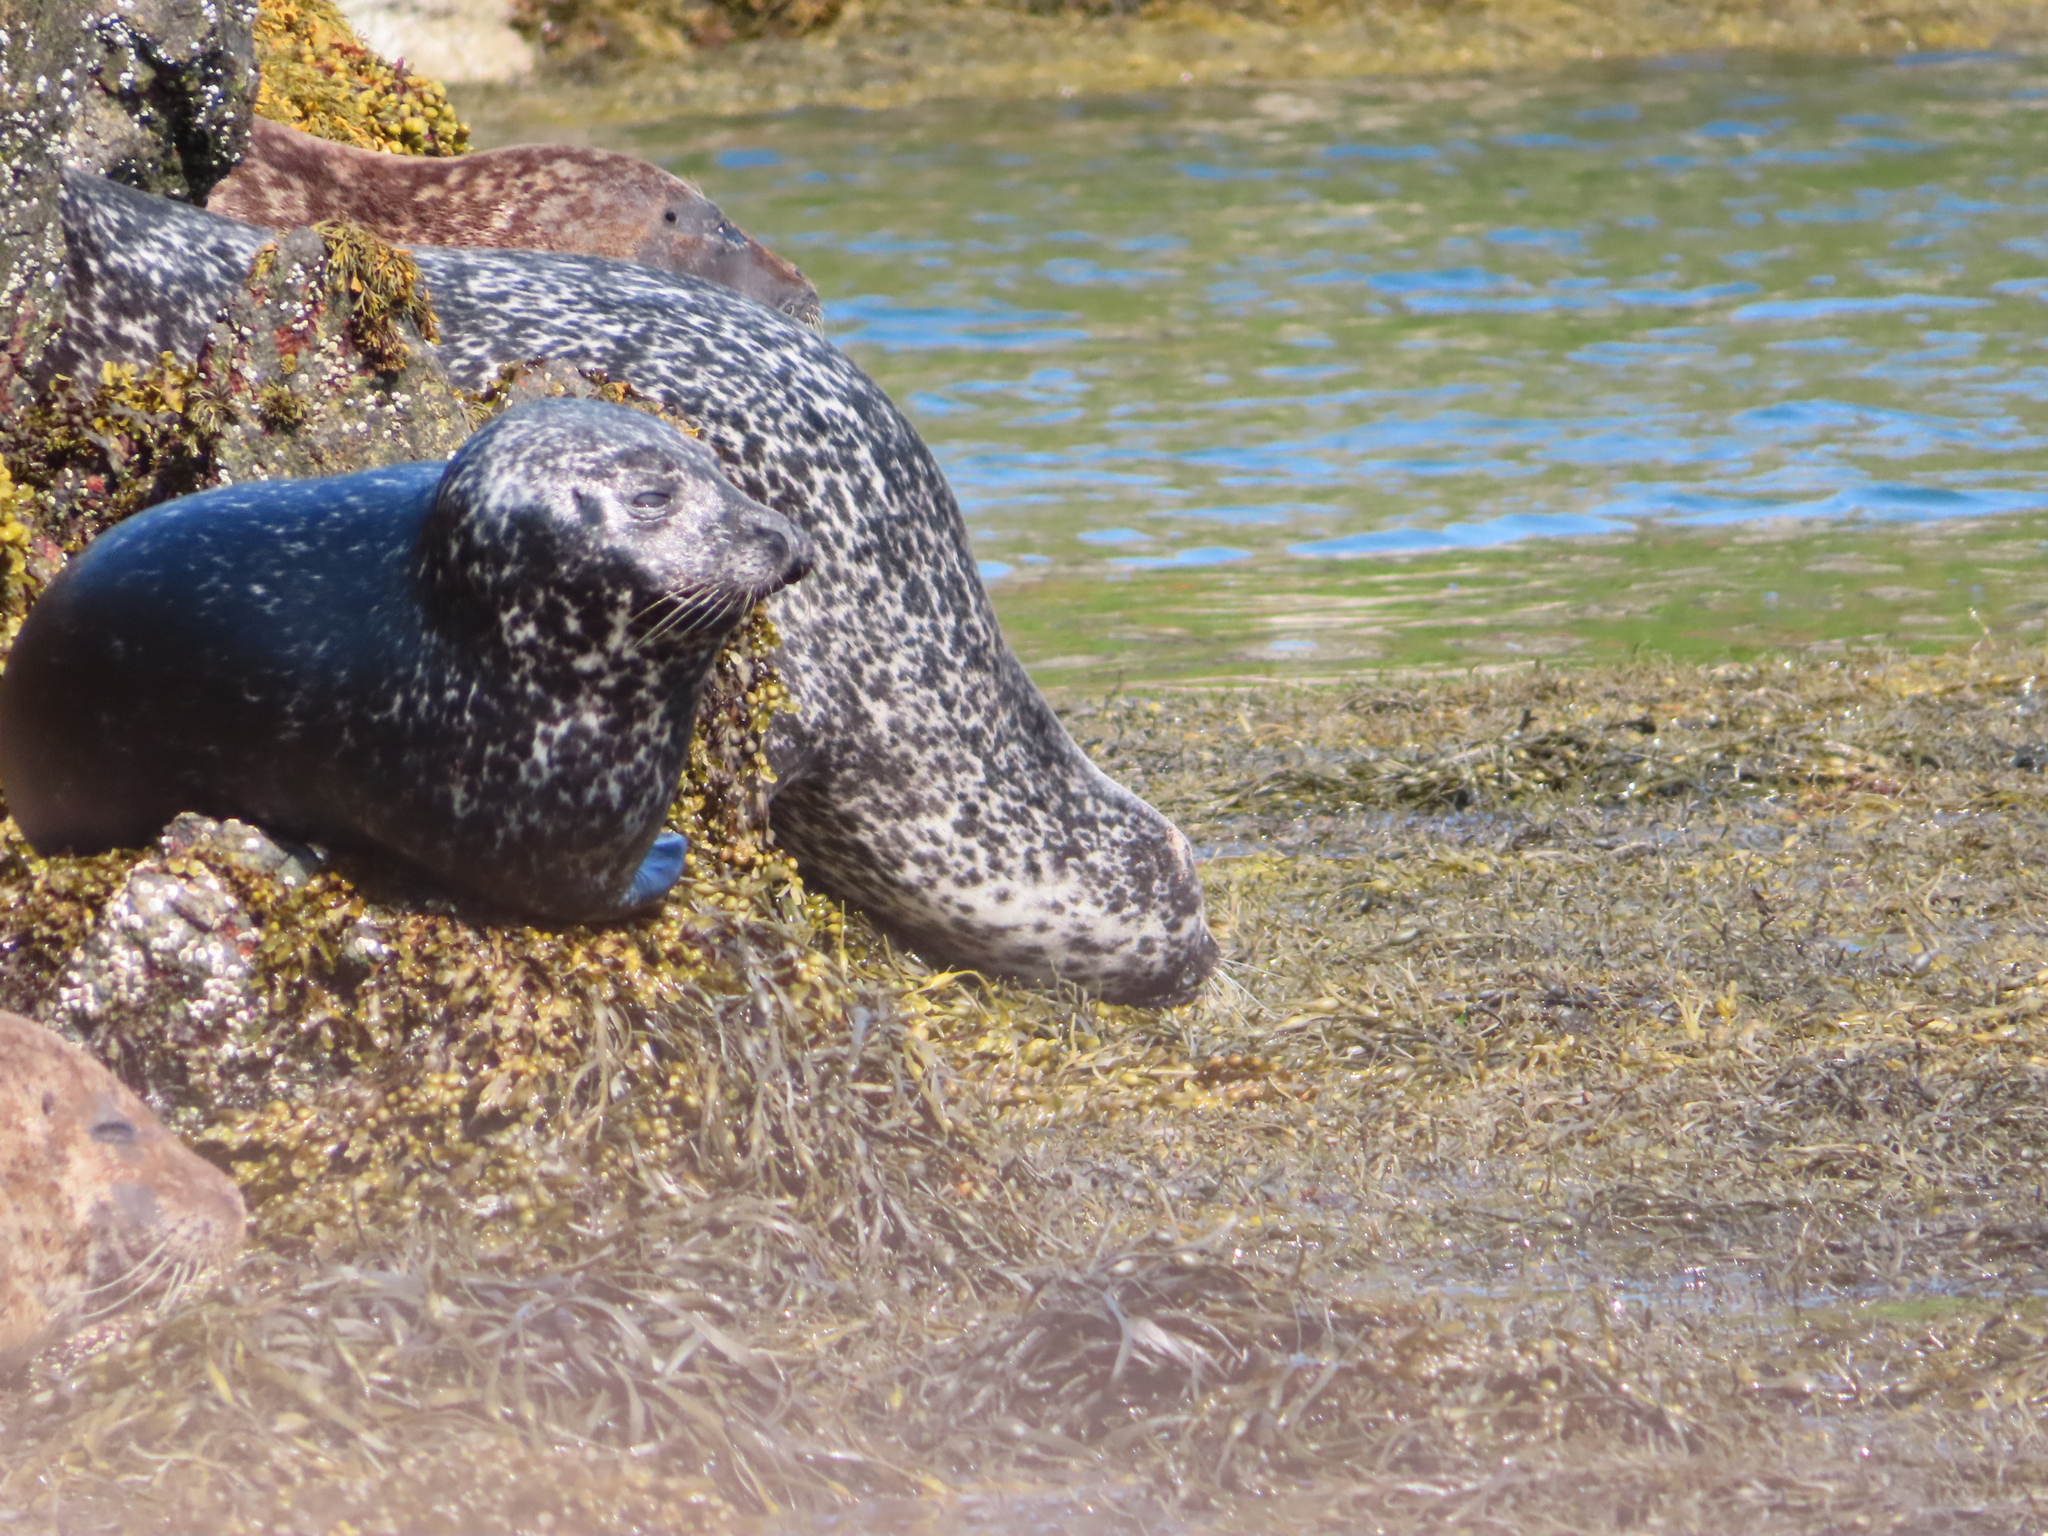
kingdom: Animalia
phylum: Chordata
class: Mammalia
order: Carnivora
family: Phocidae
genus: Phoca
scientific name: Phoca vitulina
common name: Harbor seal
